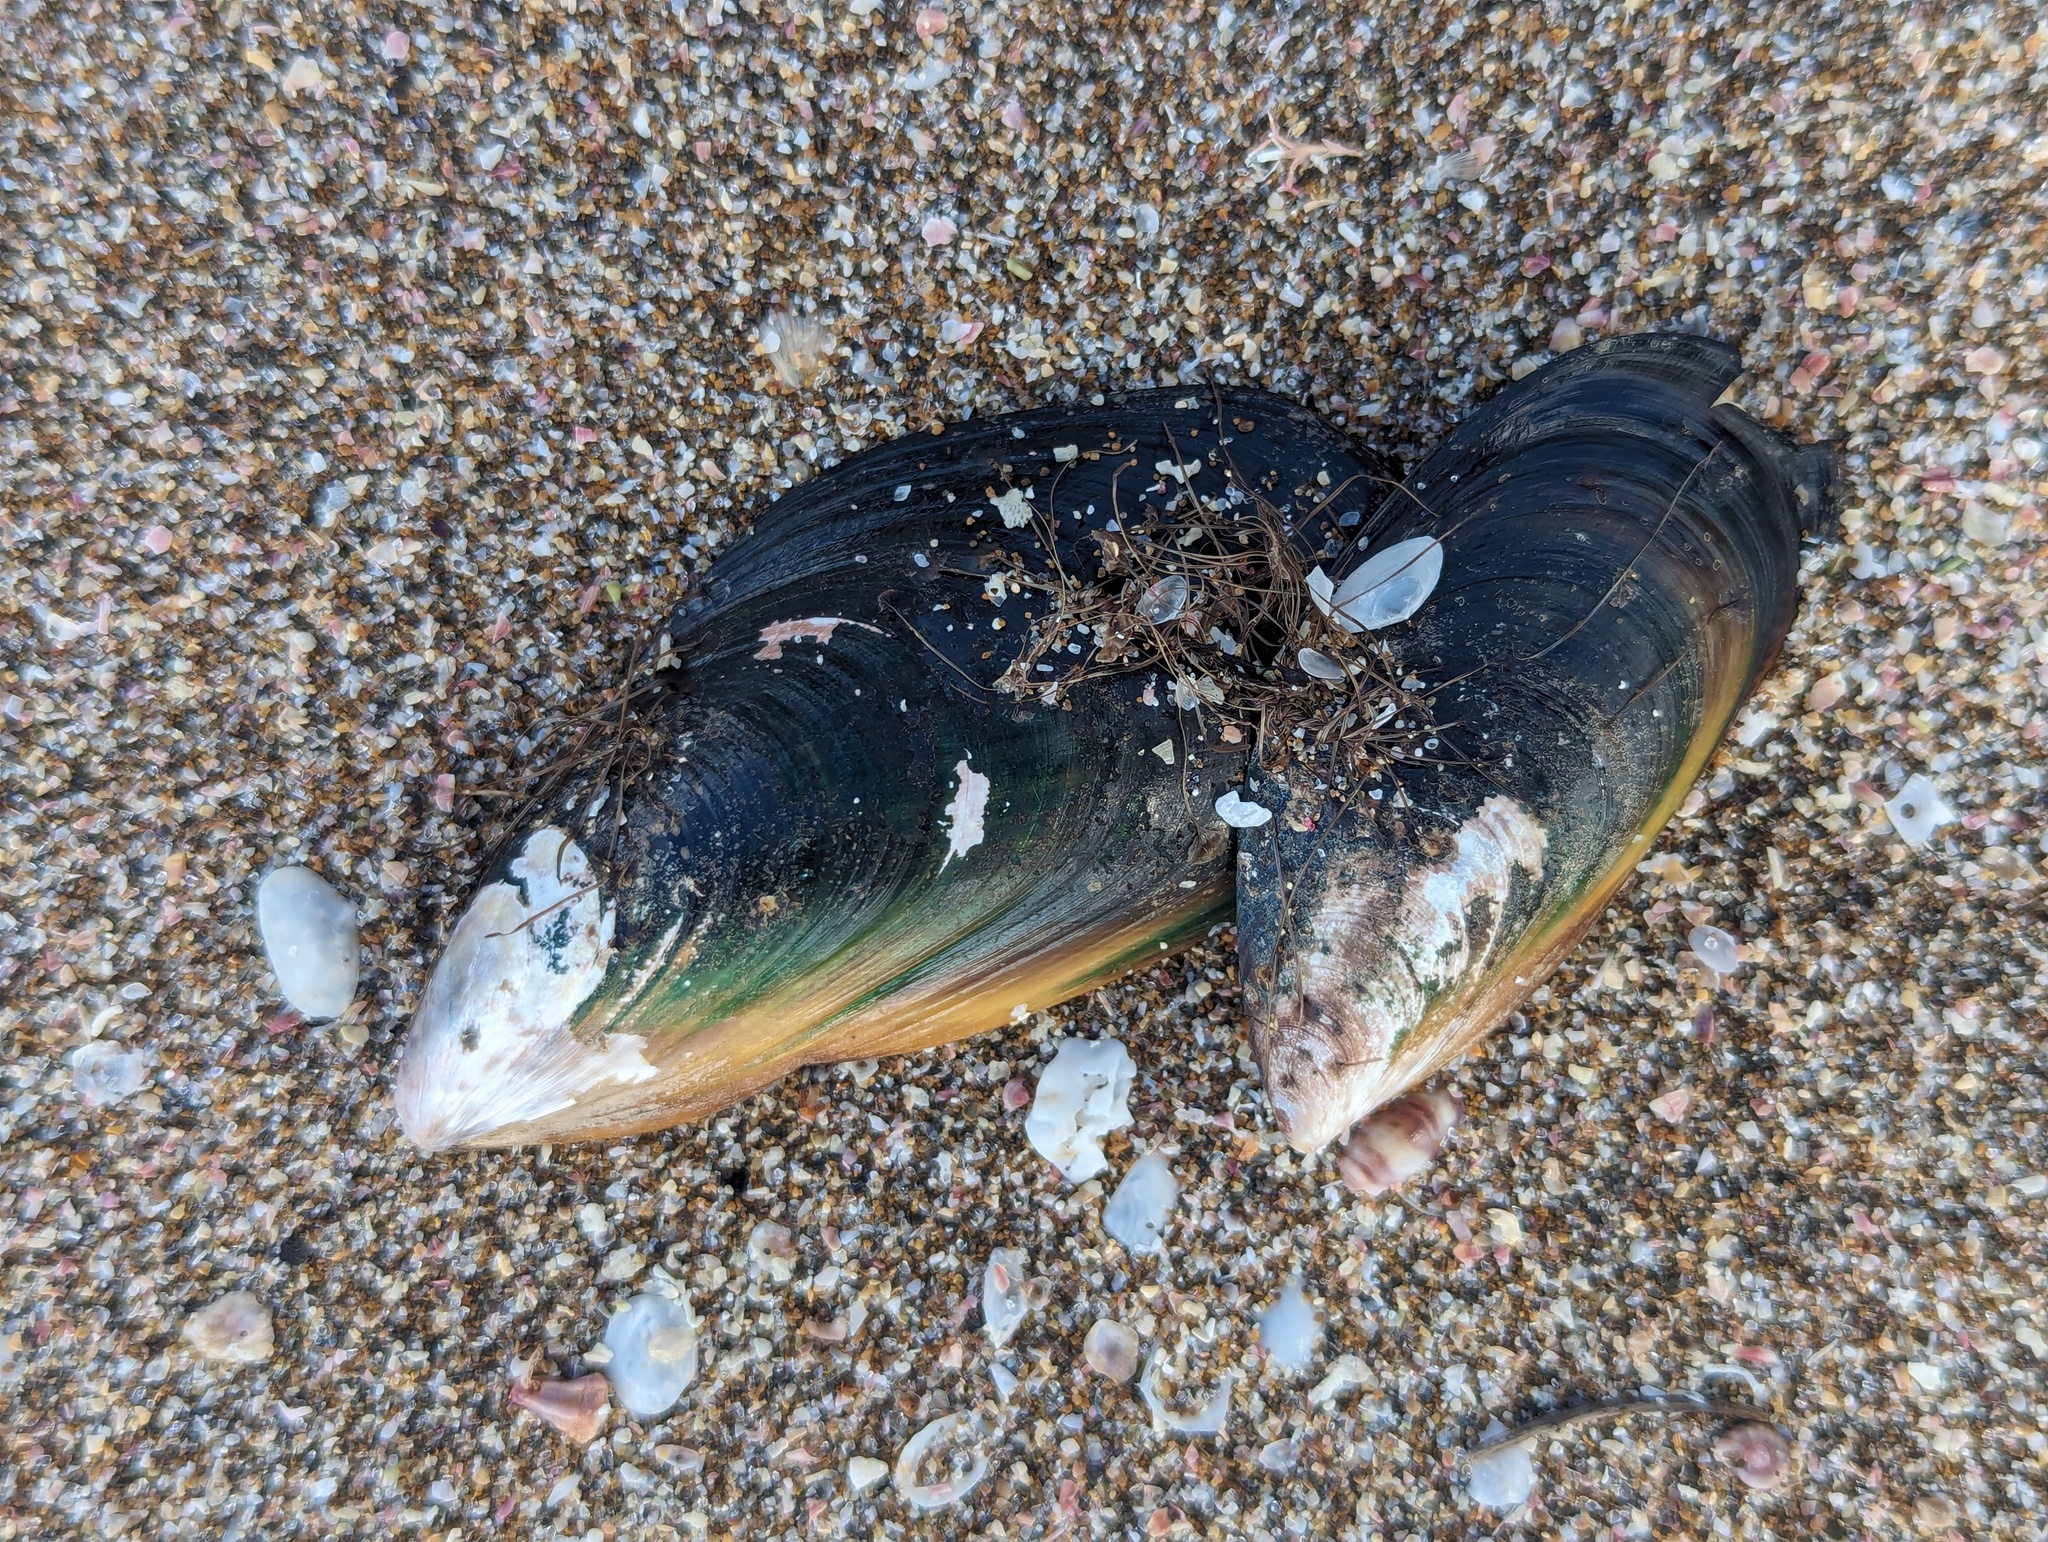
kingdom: Animalia
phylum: Mollusca
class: Bivalvia
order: Mytilida
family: Mytilidae
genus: Perna
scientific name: Perna canaliculus
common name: New zealand greenshelltm
